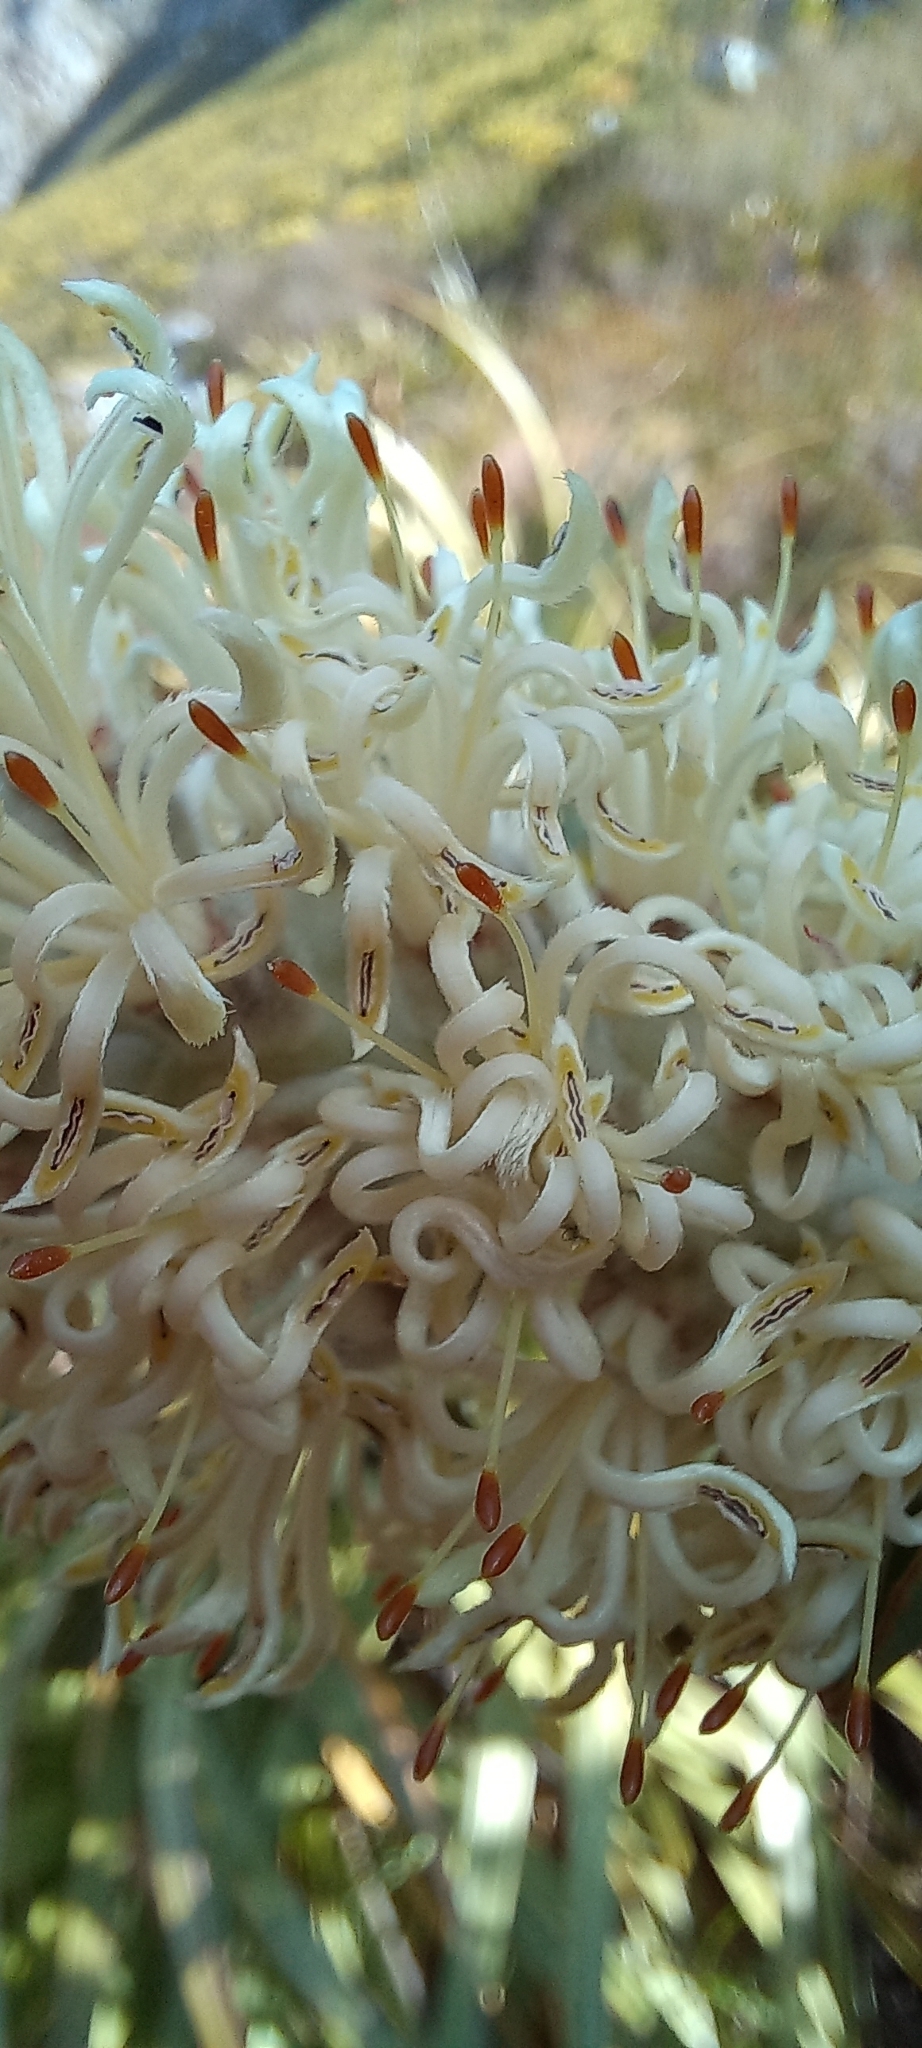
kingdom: Plantae
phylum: Tracheophyta
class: Magnoliopsida
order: Proteales
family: Proteaceae
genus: Paranomus
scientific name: Paranomus sceptrum-gustavianus
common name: King gustav's sceptre
